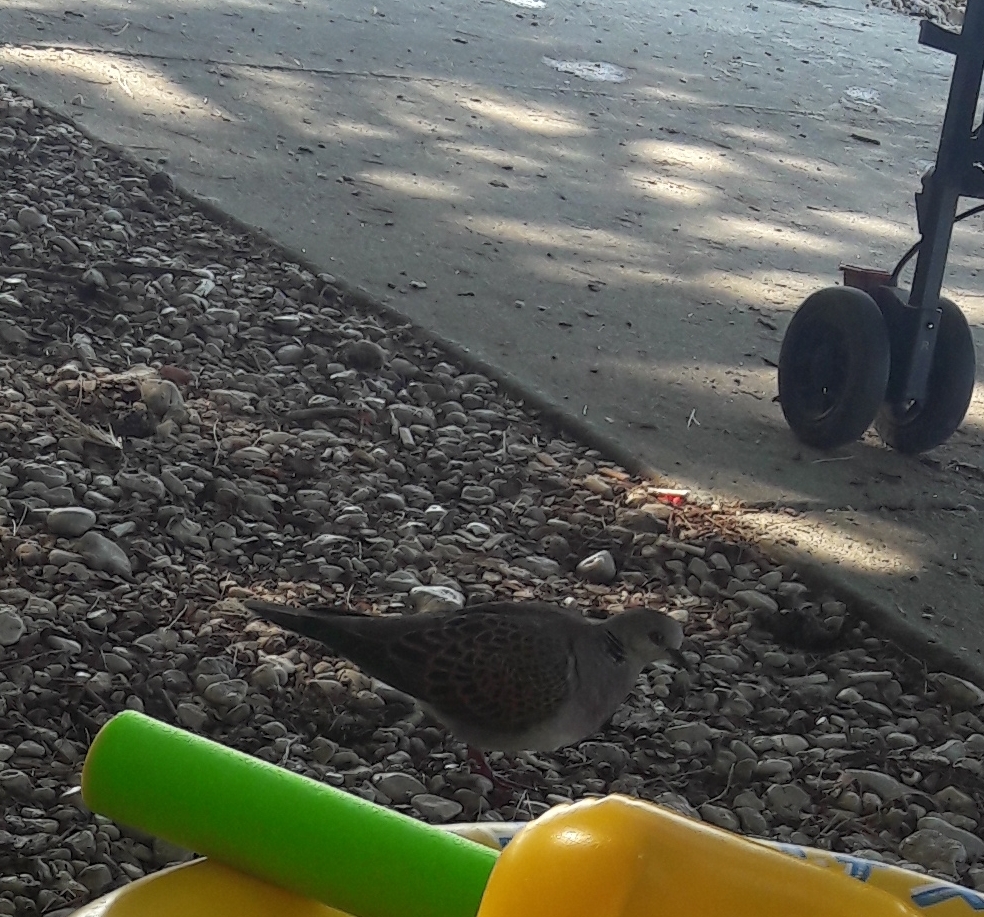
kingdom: Animalia
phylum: Chordata
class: Aves
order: Columbiformes
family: Columbidae
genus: Streptopelia
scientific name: Streptopelia turtur
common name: European turtle dove
